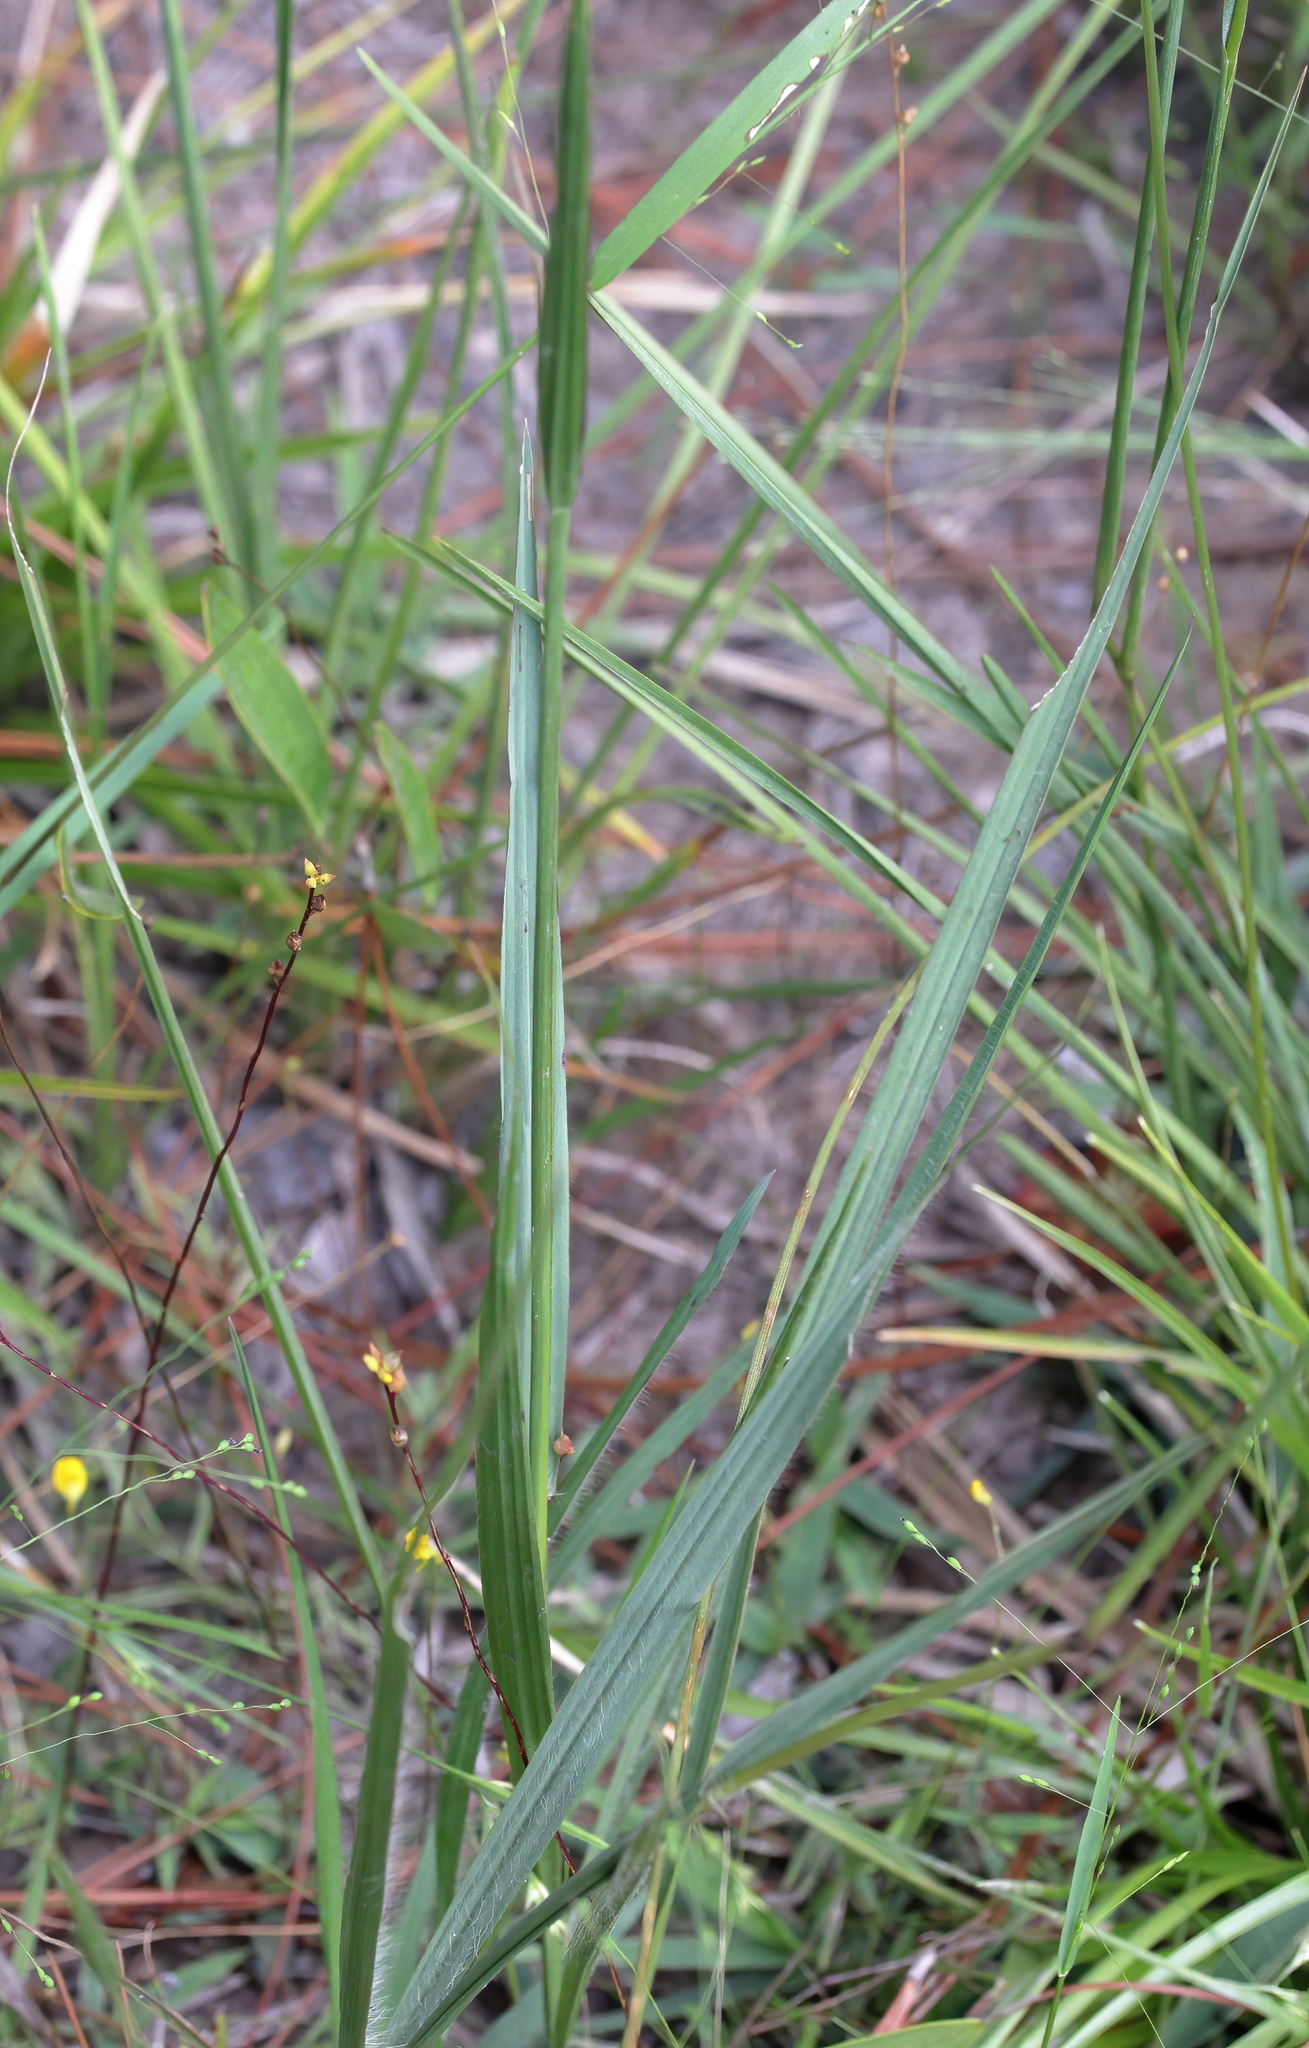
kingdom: Plantae
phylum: Tracheophyta
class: Liliopsida
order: Poales
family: Poaceae
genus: Paspalum
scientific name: Paspalum praecox
